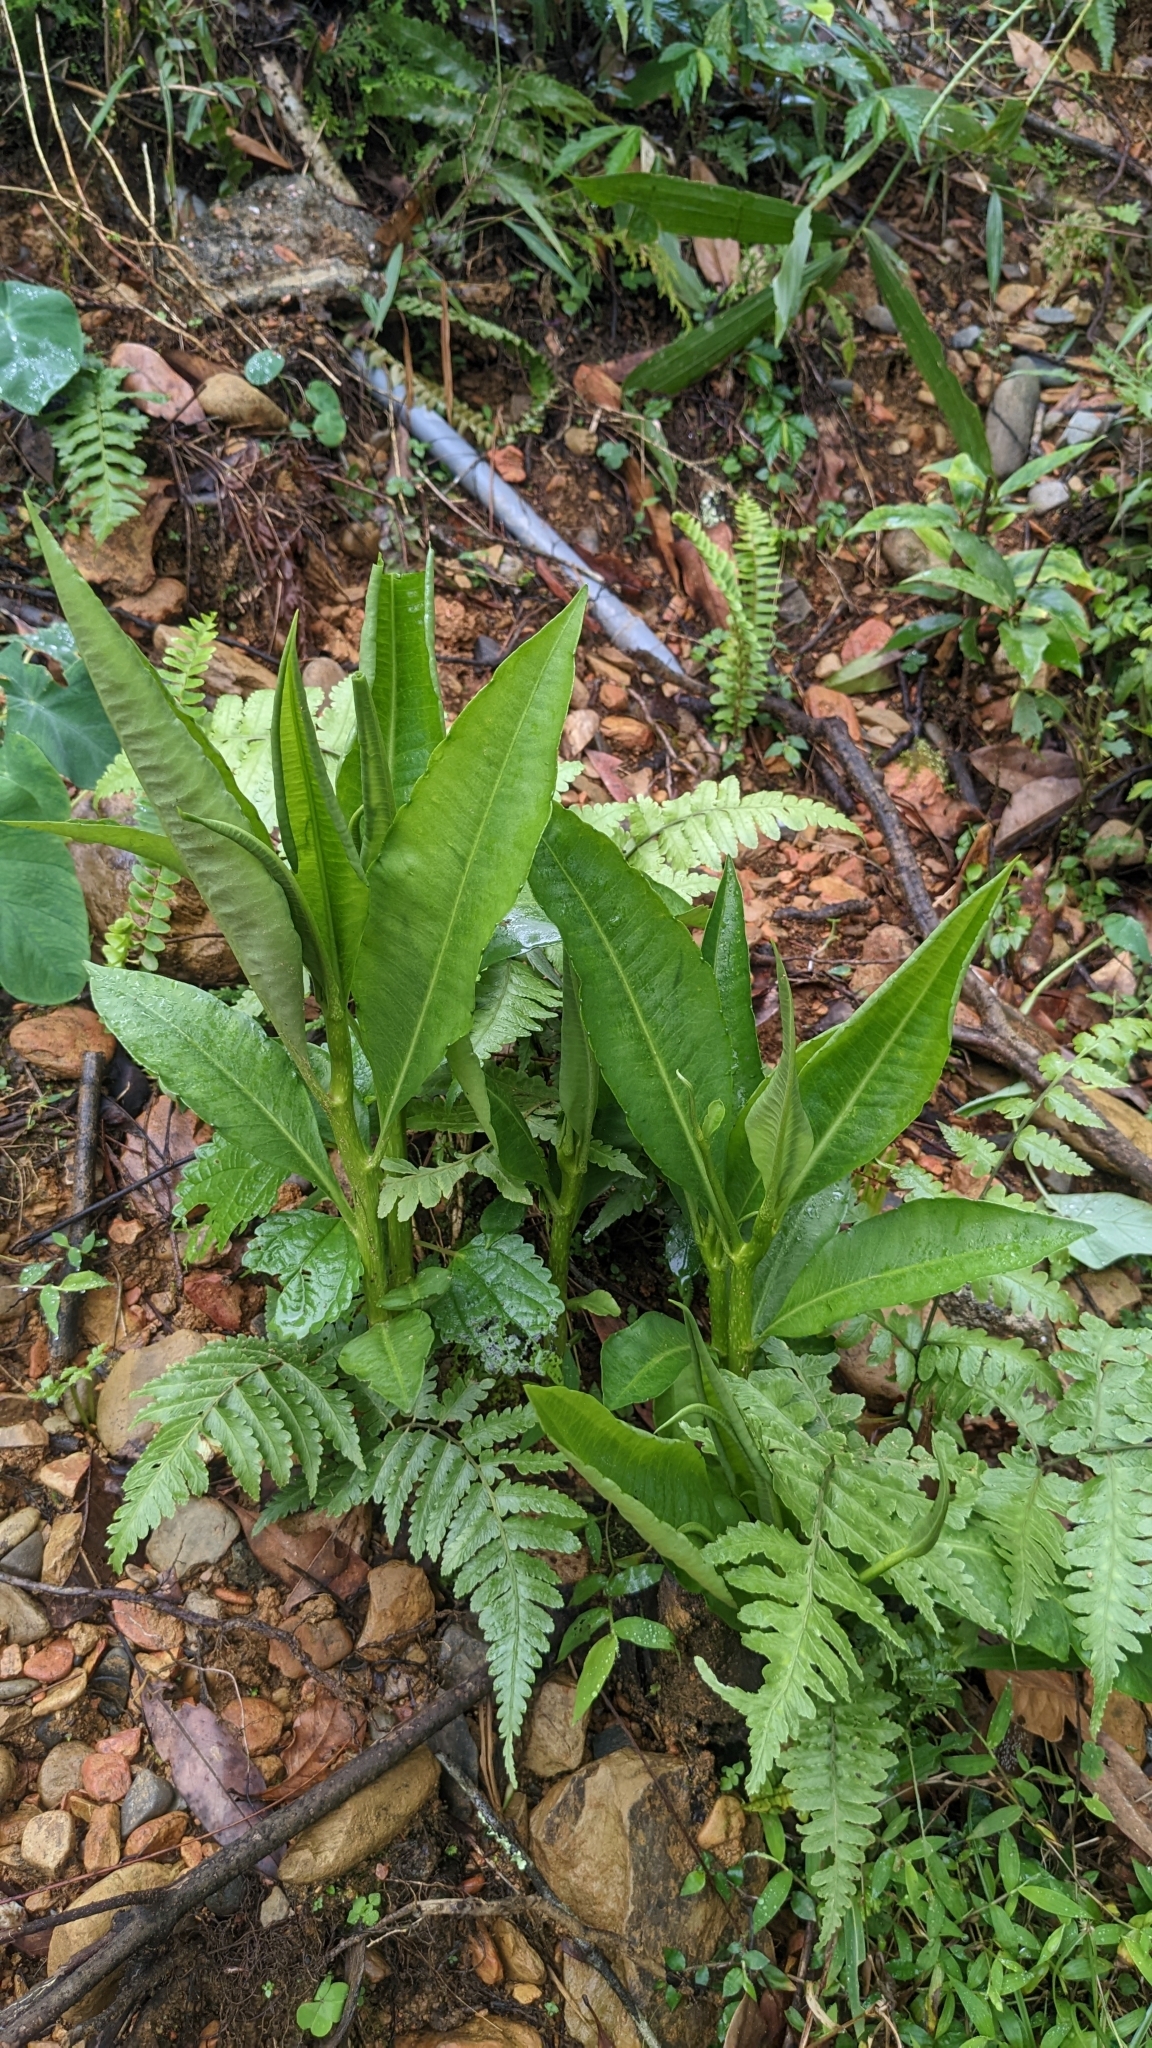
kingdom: Plantae
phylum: Tracheophyta
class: Magnoliopsida
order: Ericales
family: Primulaceae
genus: Ardisia
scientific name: Ardisia polysticta
